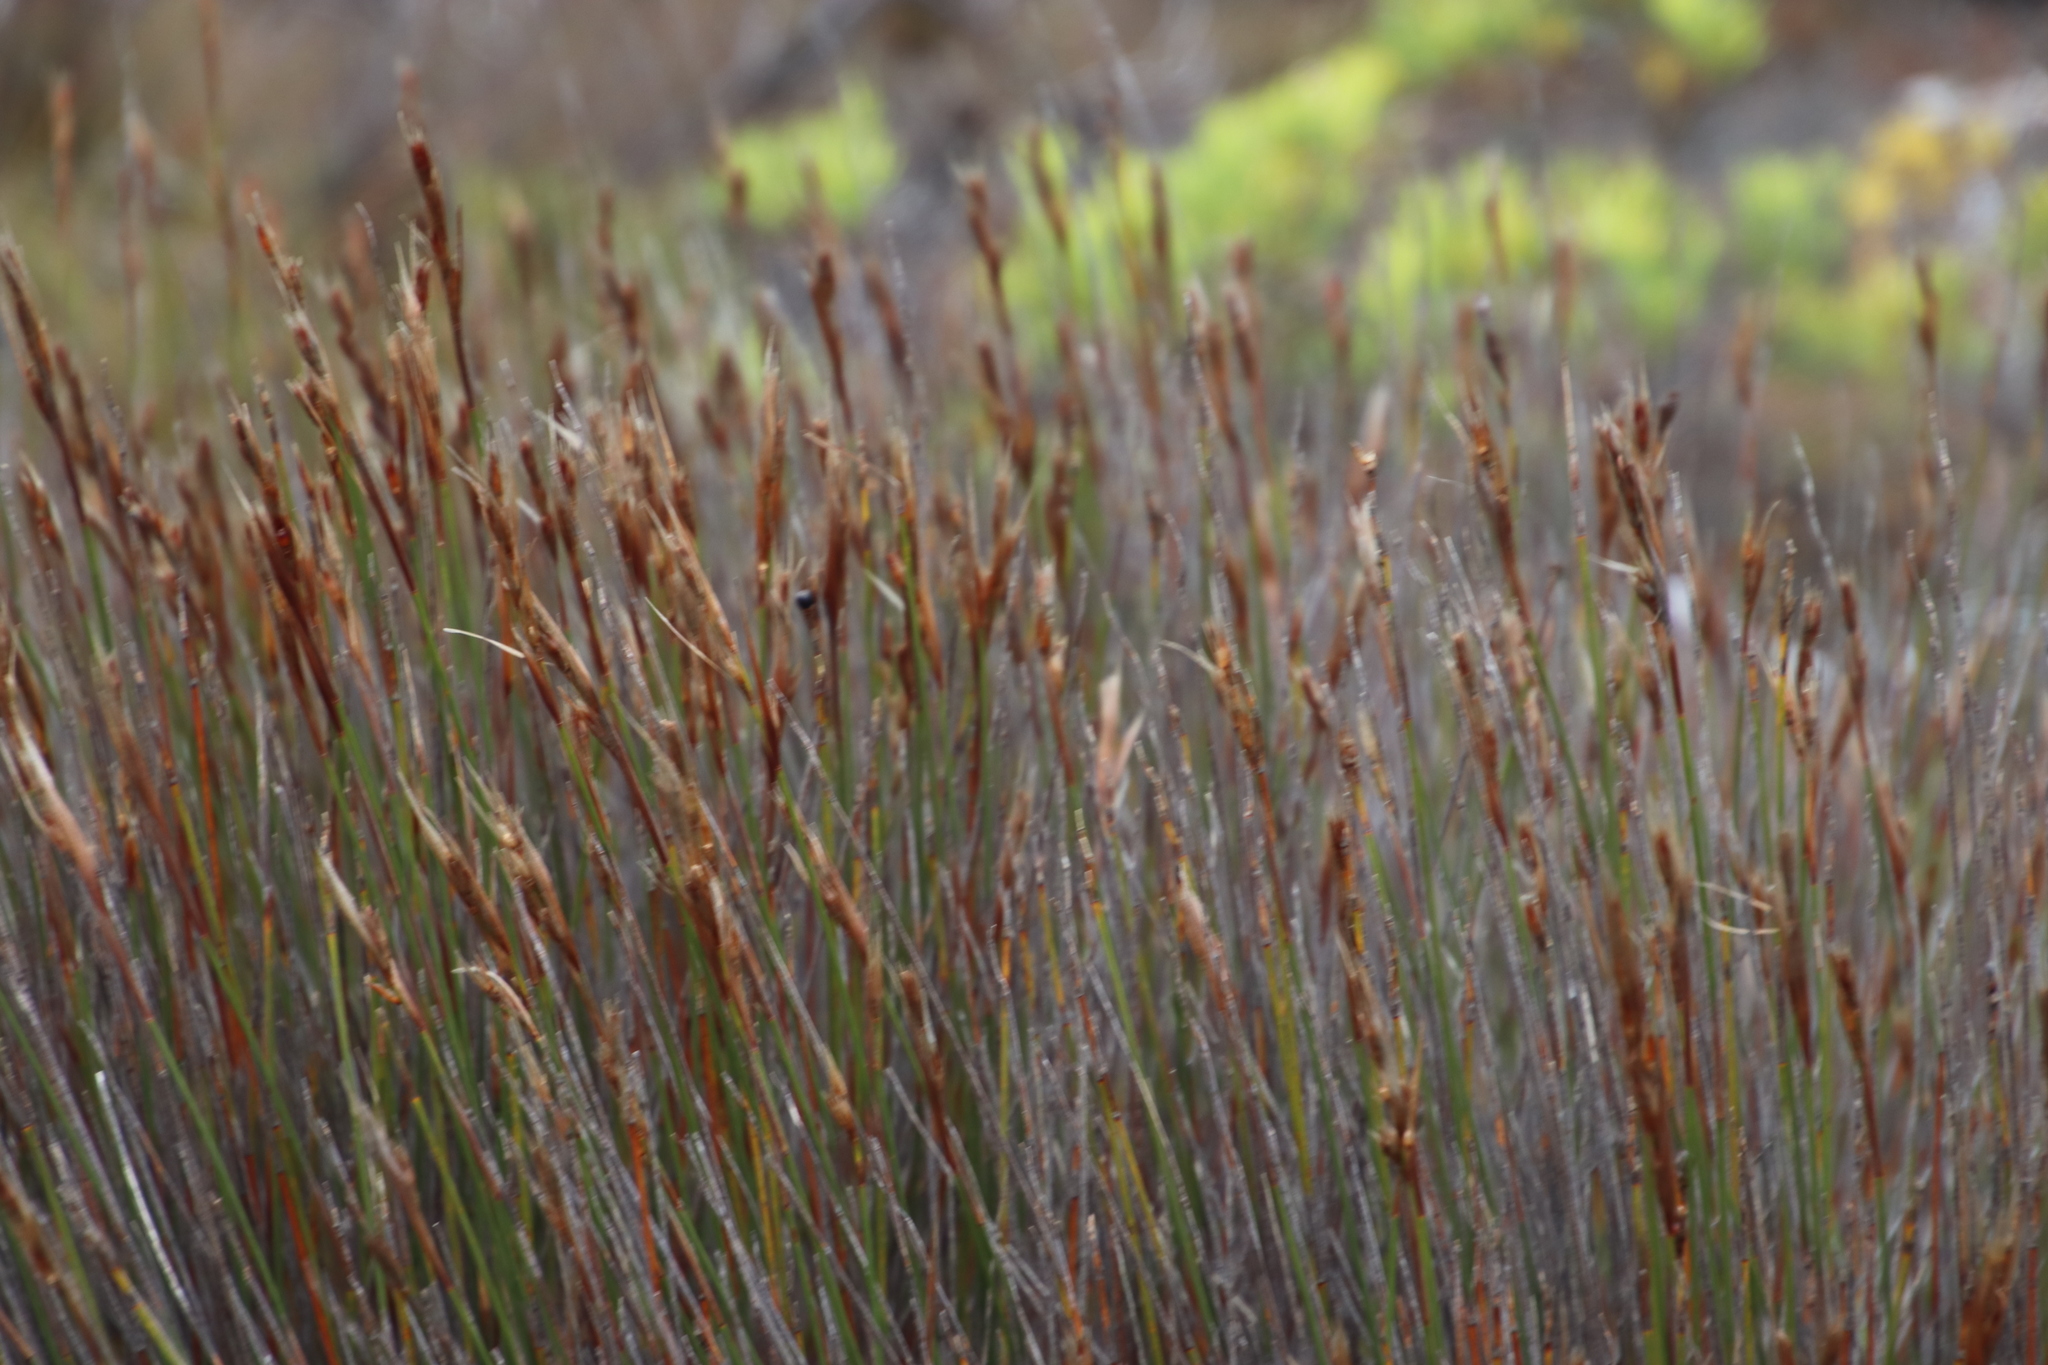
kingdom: Plantae
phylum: Tracheophyta
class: Liliopsida
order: Poales
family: Restionaceae
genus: Hypodiscus
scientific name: Hypodiscus argenteus
